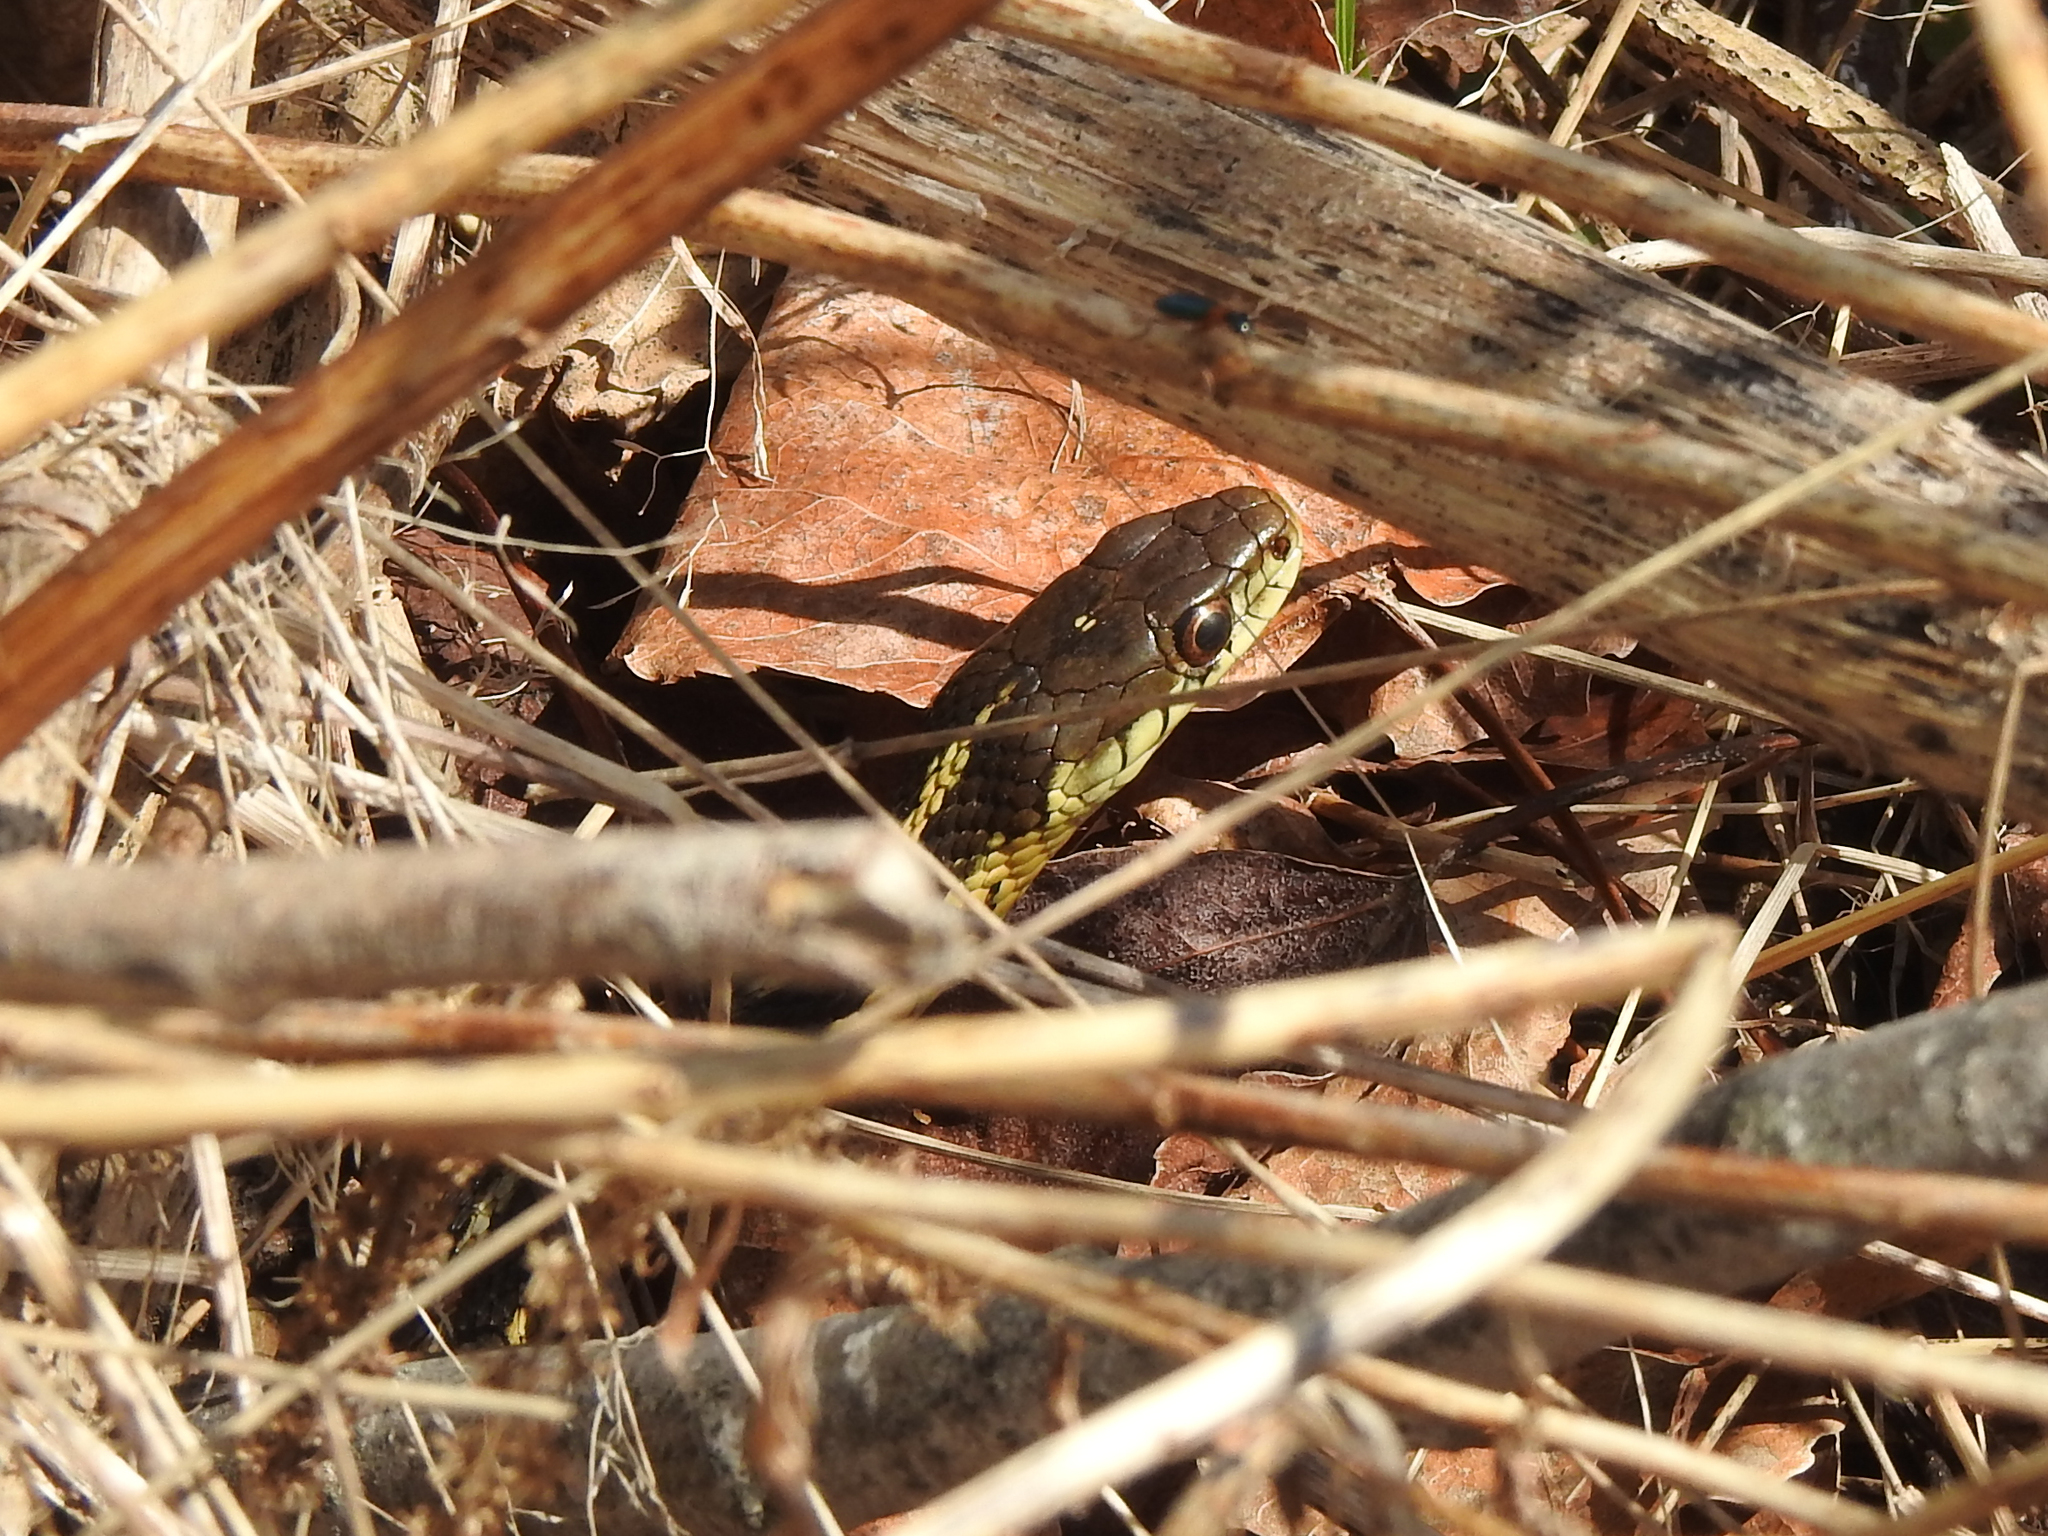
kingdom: Animalia
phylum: Chordata
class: Squamata
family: Colubridae
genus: Thamnophis
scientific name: Thamnophis sirtalis
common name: Common garter snake
